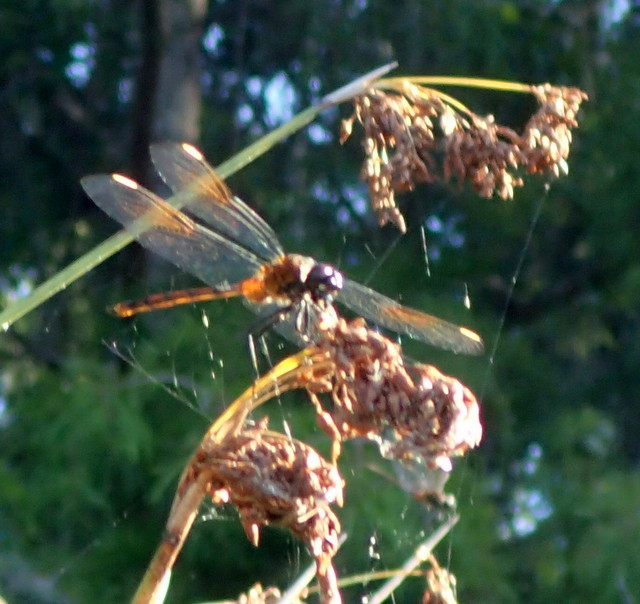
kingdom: Animalia
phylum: Arthropoda
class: Insecta
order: Odonata
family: Libellulidae
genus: Brachymesia
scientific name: Brachymesia gravida
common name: Four-spotted pennant
